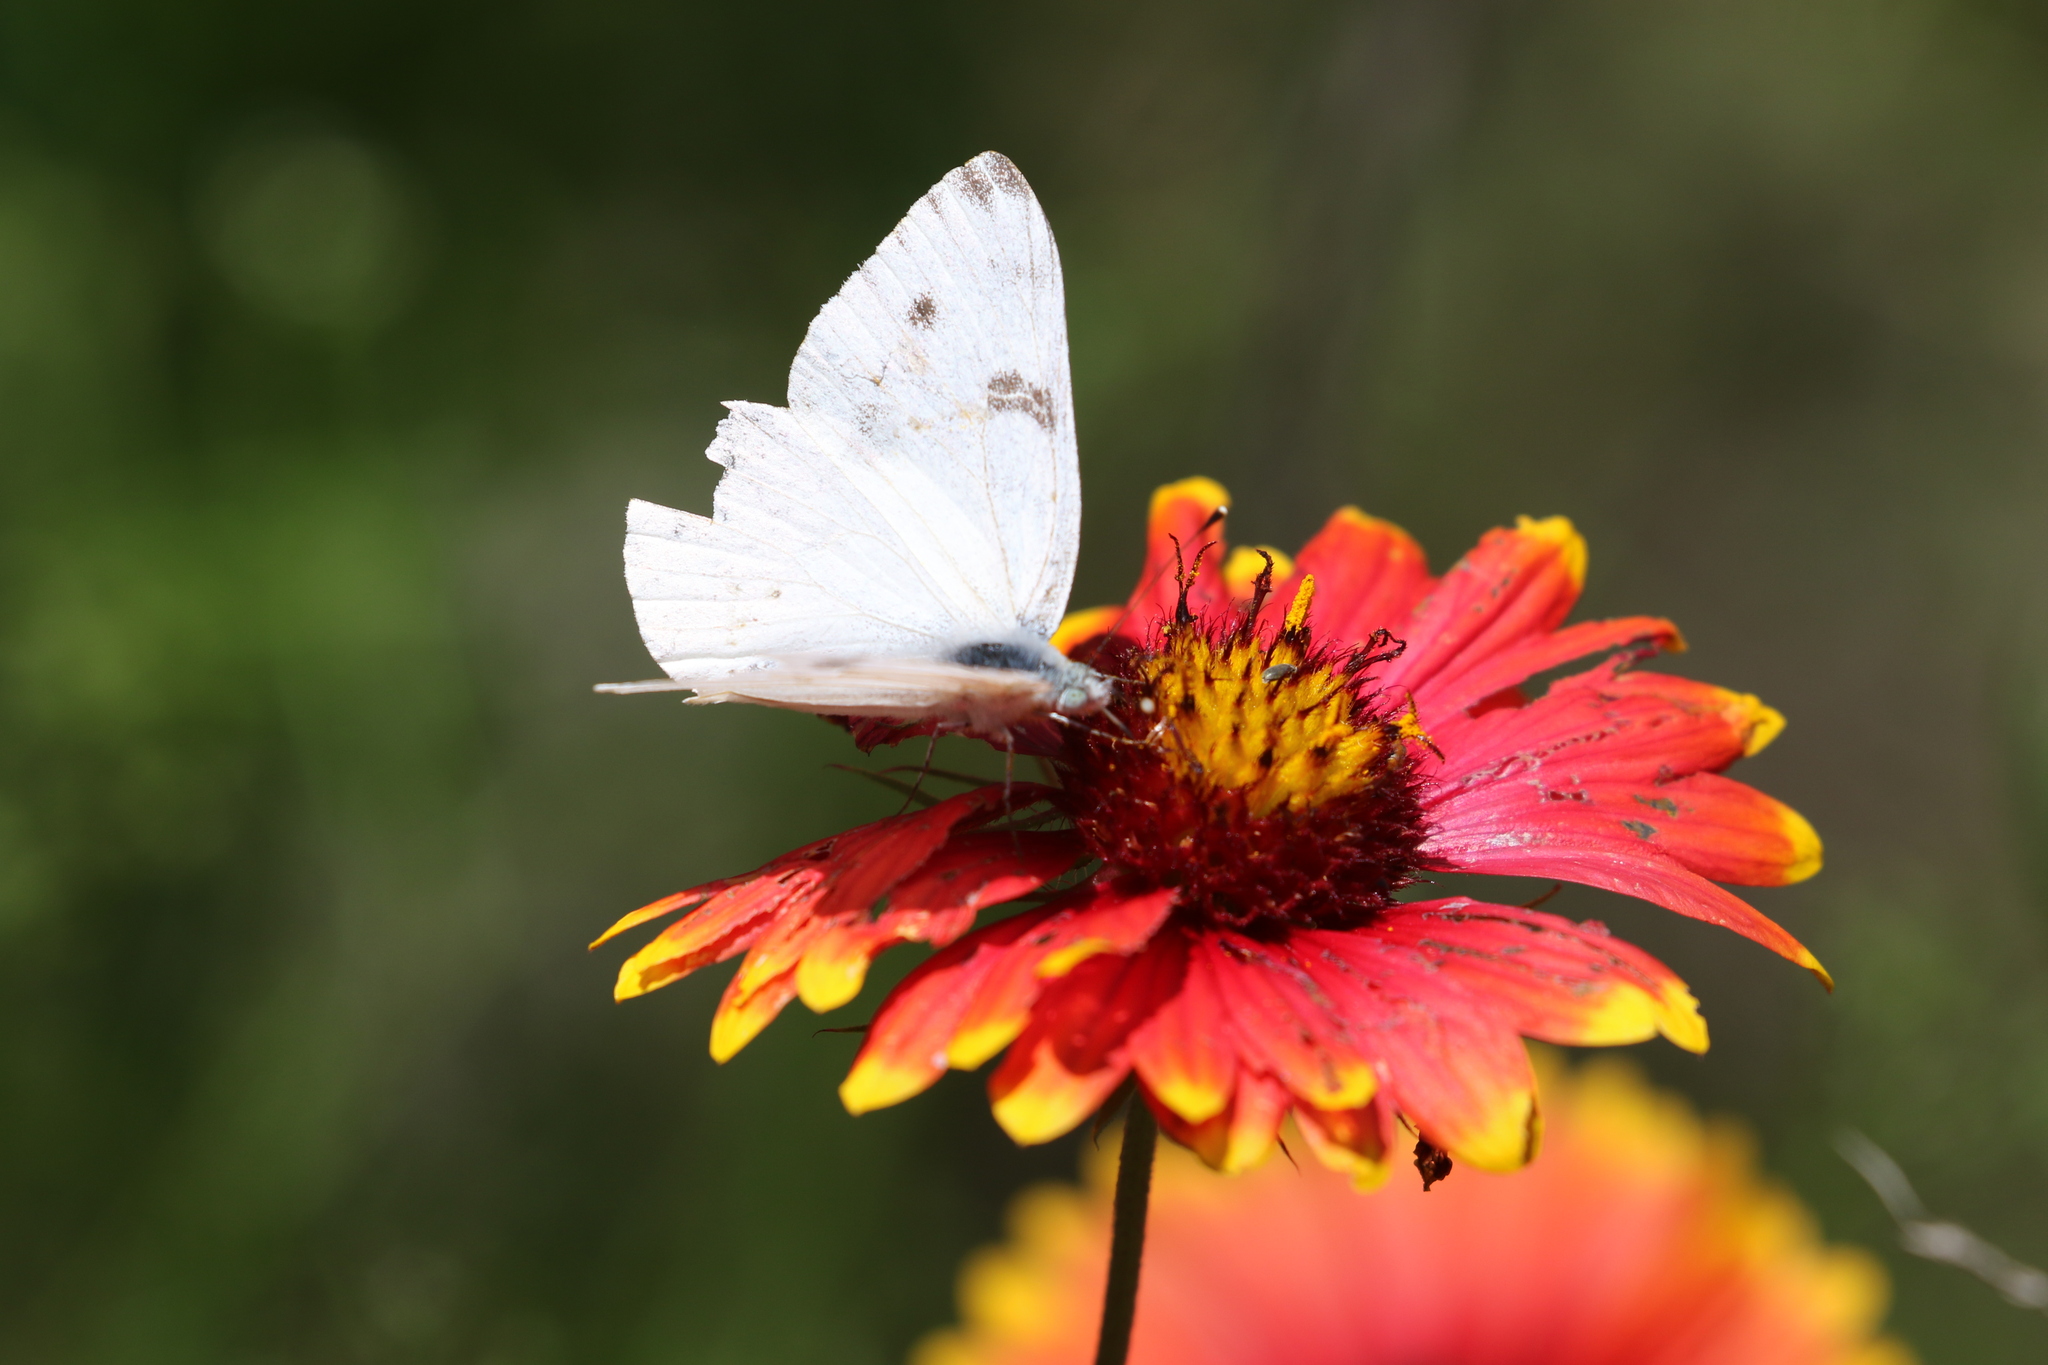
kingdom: Animalia
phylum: Arthropoda
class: Insecta
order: Lepidoptera
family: Pieridae
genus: Pontia
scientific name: Pontia protodice
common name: Checkered white
